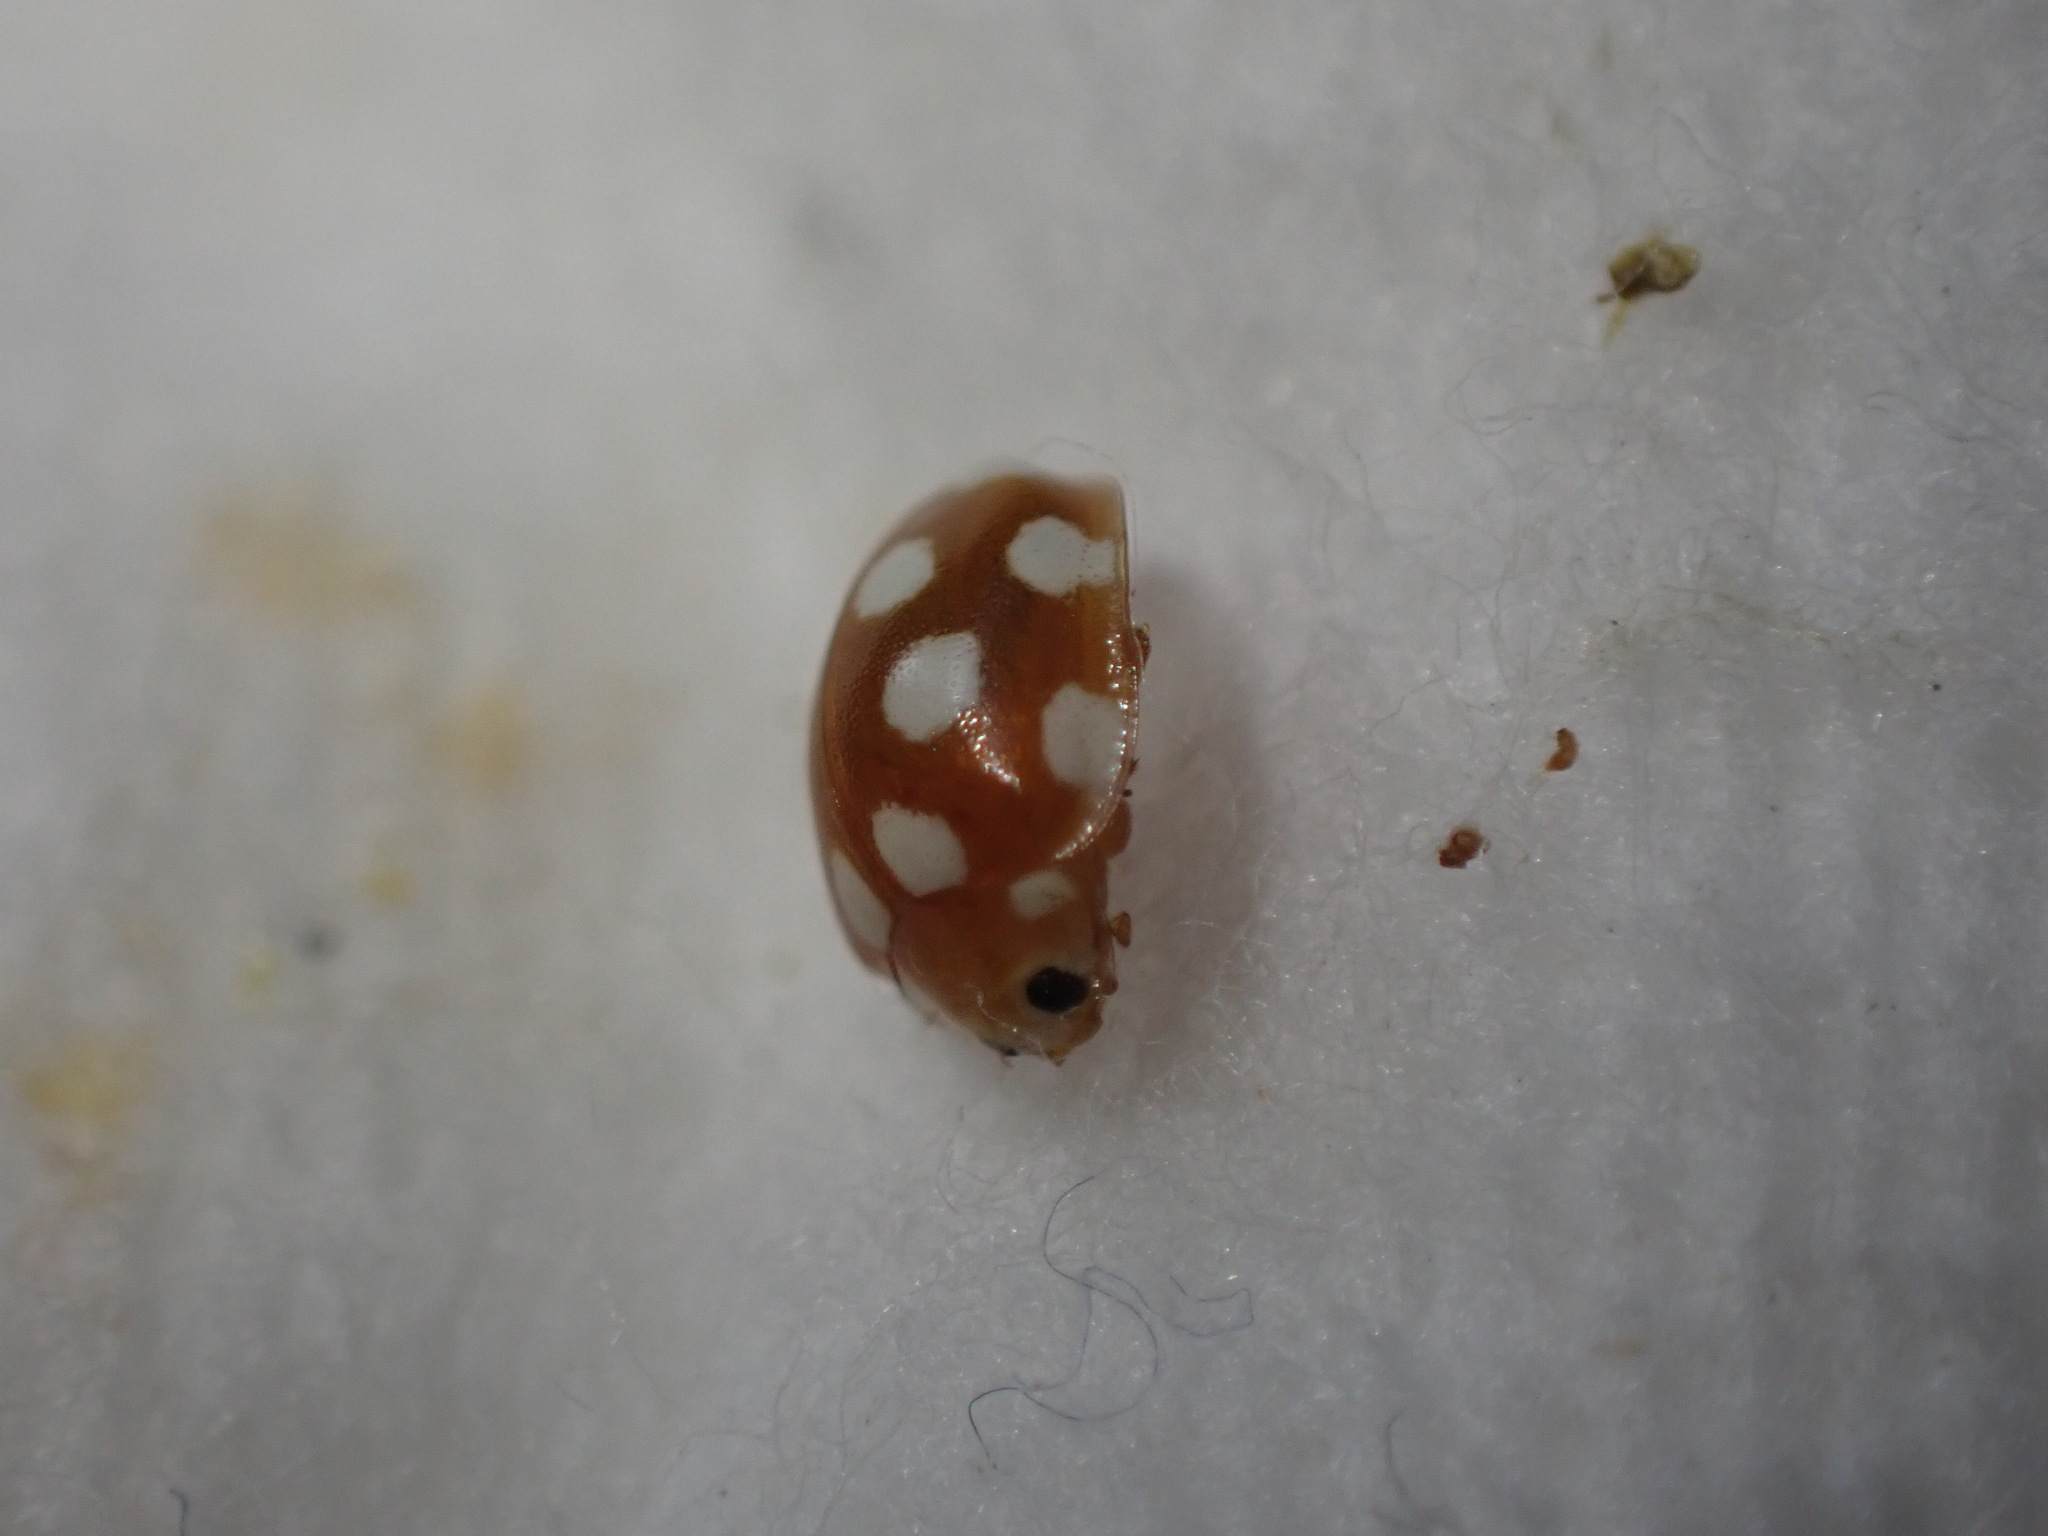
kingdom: Animalia
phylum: Arthropoda
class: Insecta
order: Coleoptera
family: Coccinellidae
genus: Vibidia
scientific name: Vibidia duodecimguttata
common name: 12-spot ladybird
